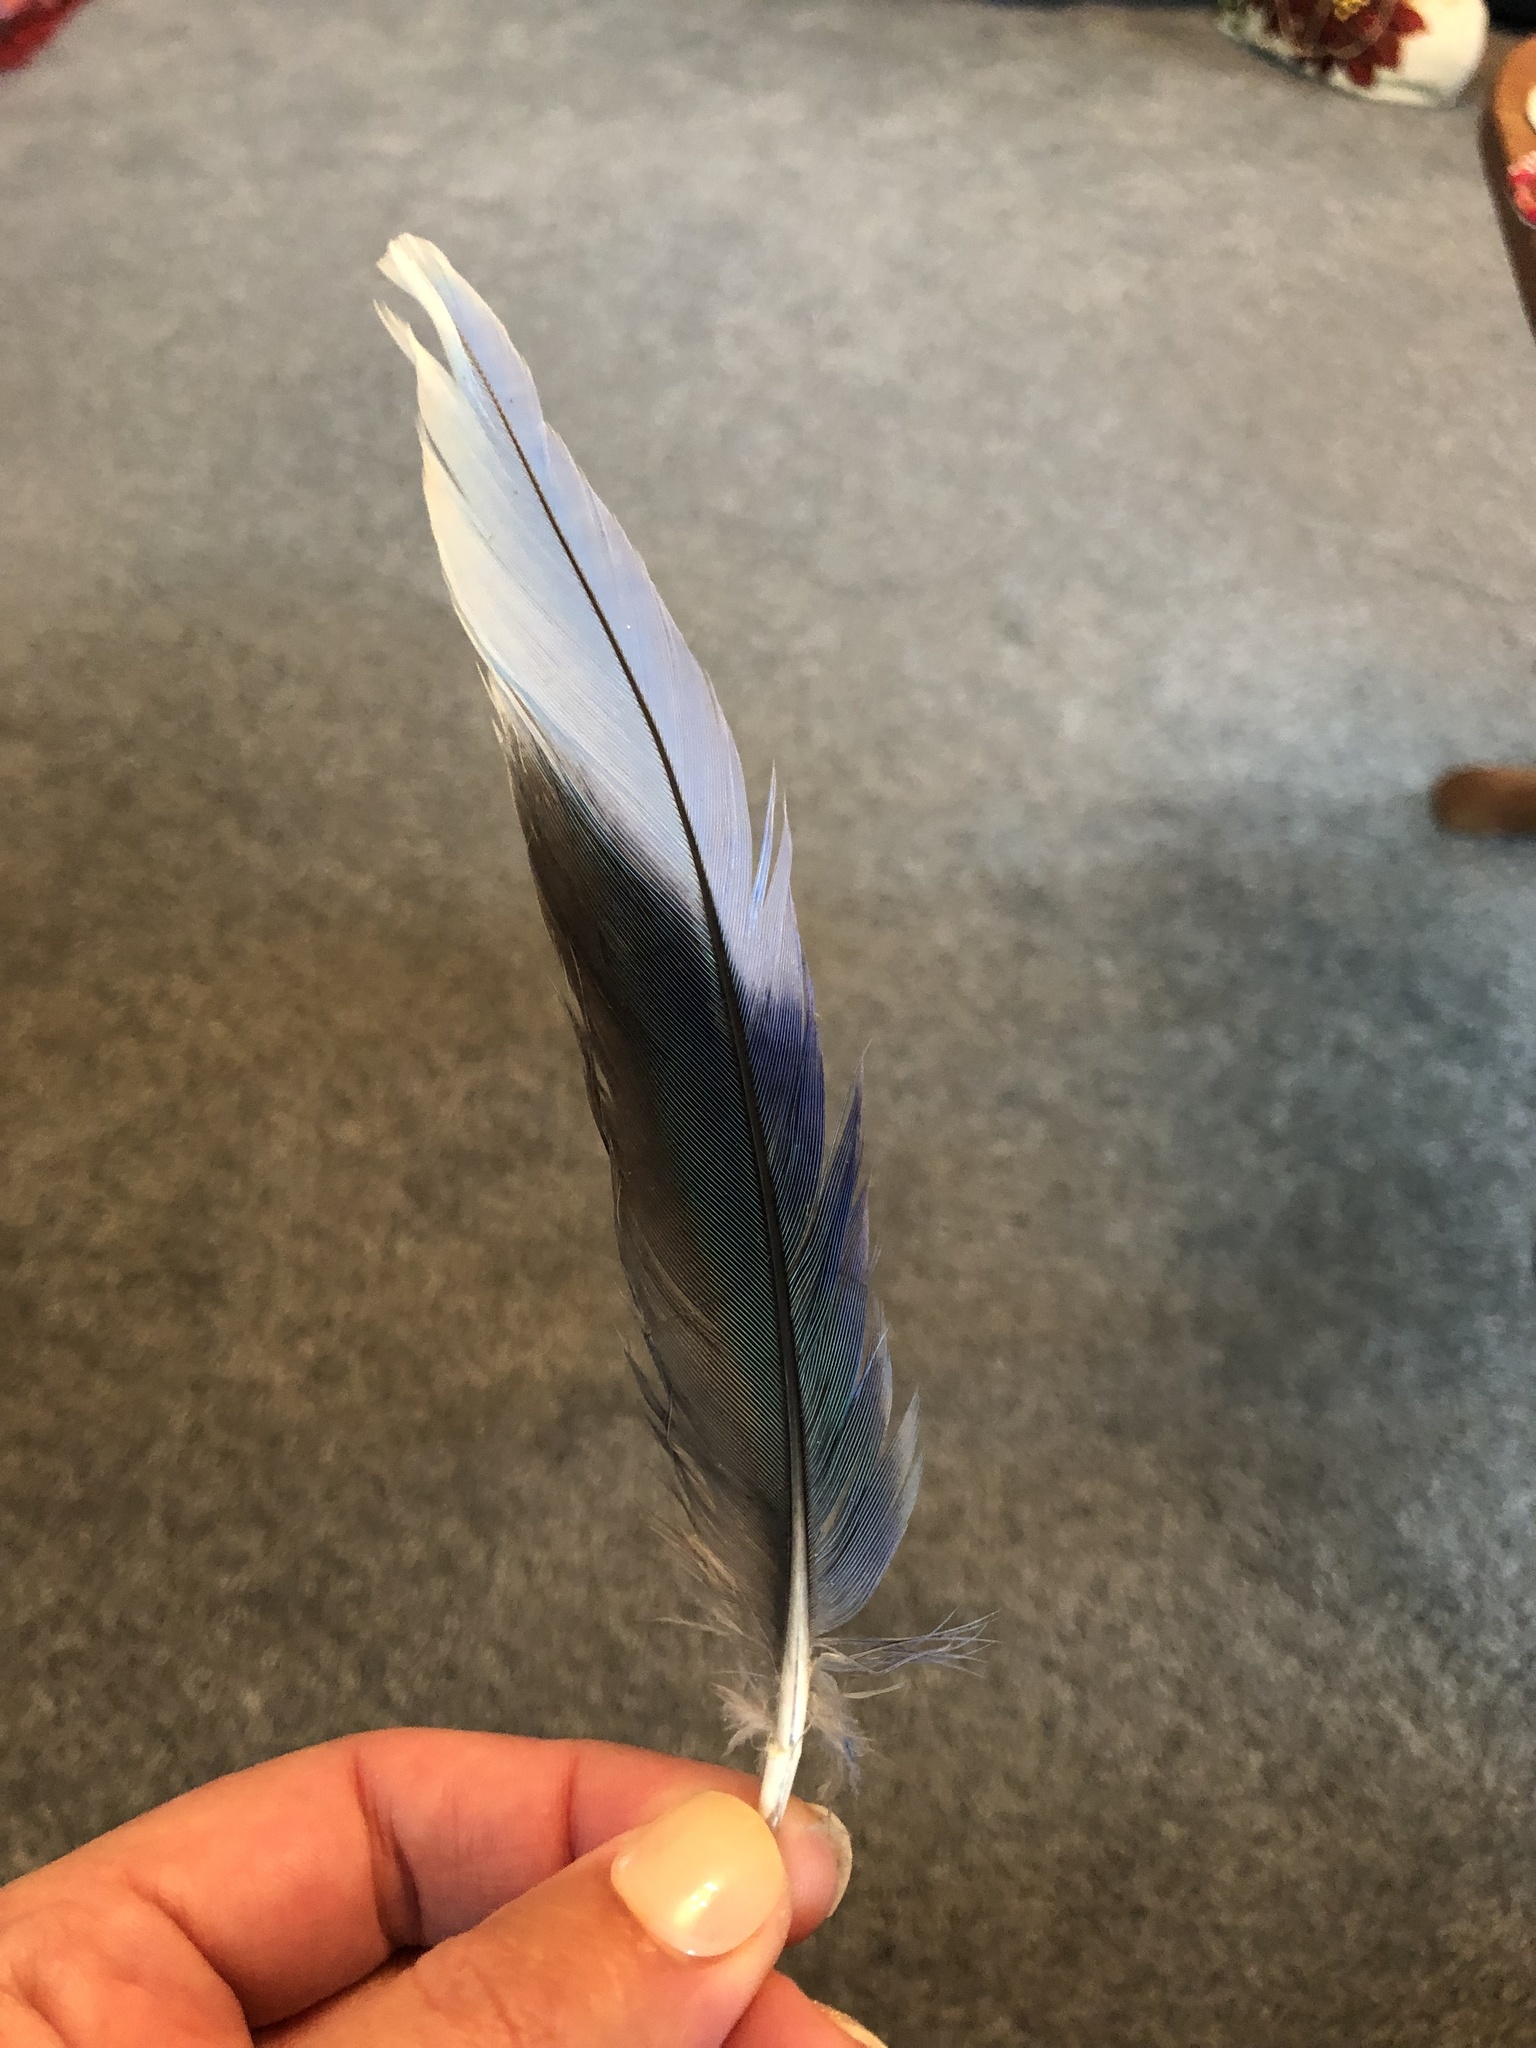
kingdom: Animalia
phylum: Chordata
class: Aves
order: Psittaciformes
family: Psittacidae
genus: Platycercus
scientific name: Platycercus eximius
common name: Eastern rosella
